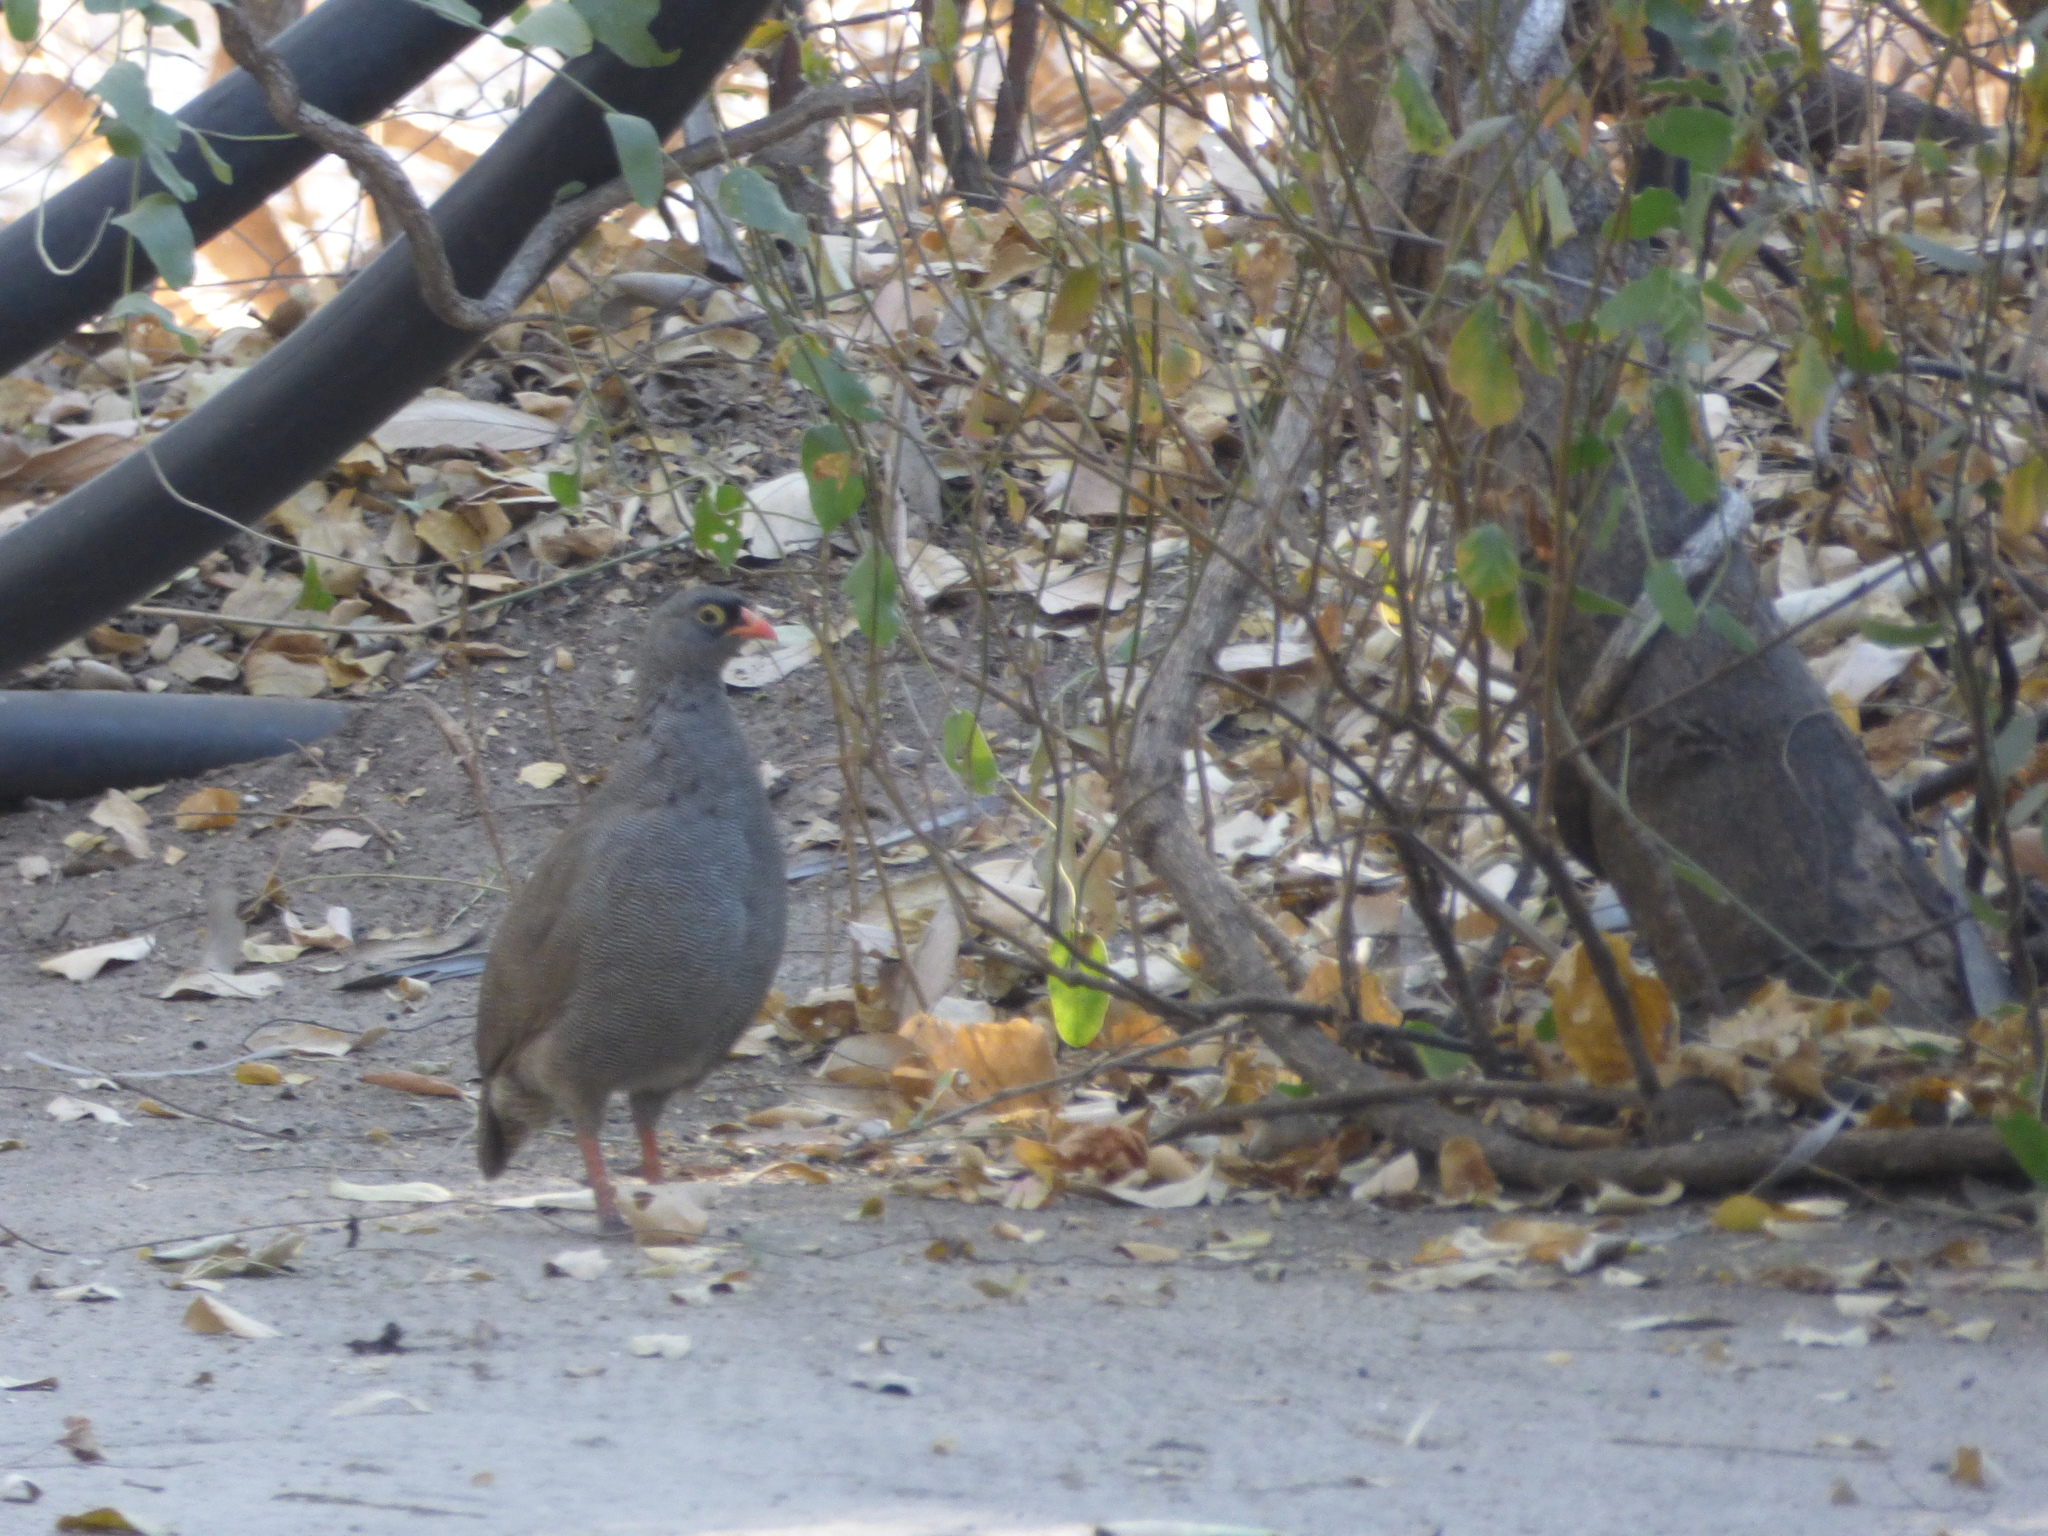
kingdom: Animalia
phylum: Chordata
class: Aves
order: Galliformes
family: Phasianidae
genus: Pternistis
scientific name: Pternistis adspersus
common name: Red-billed spurfowl
